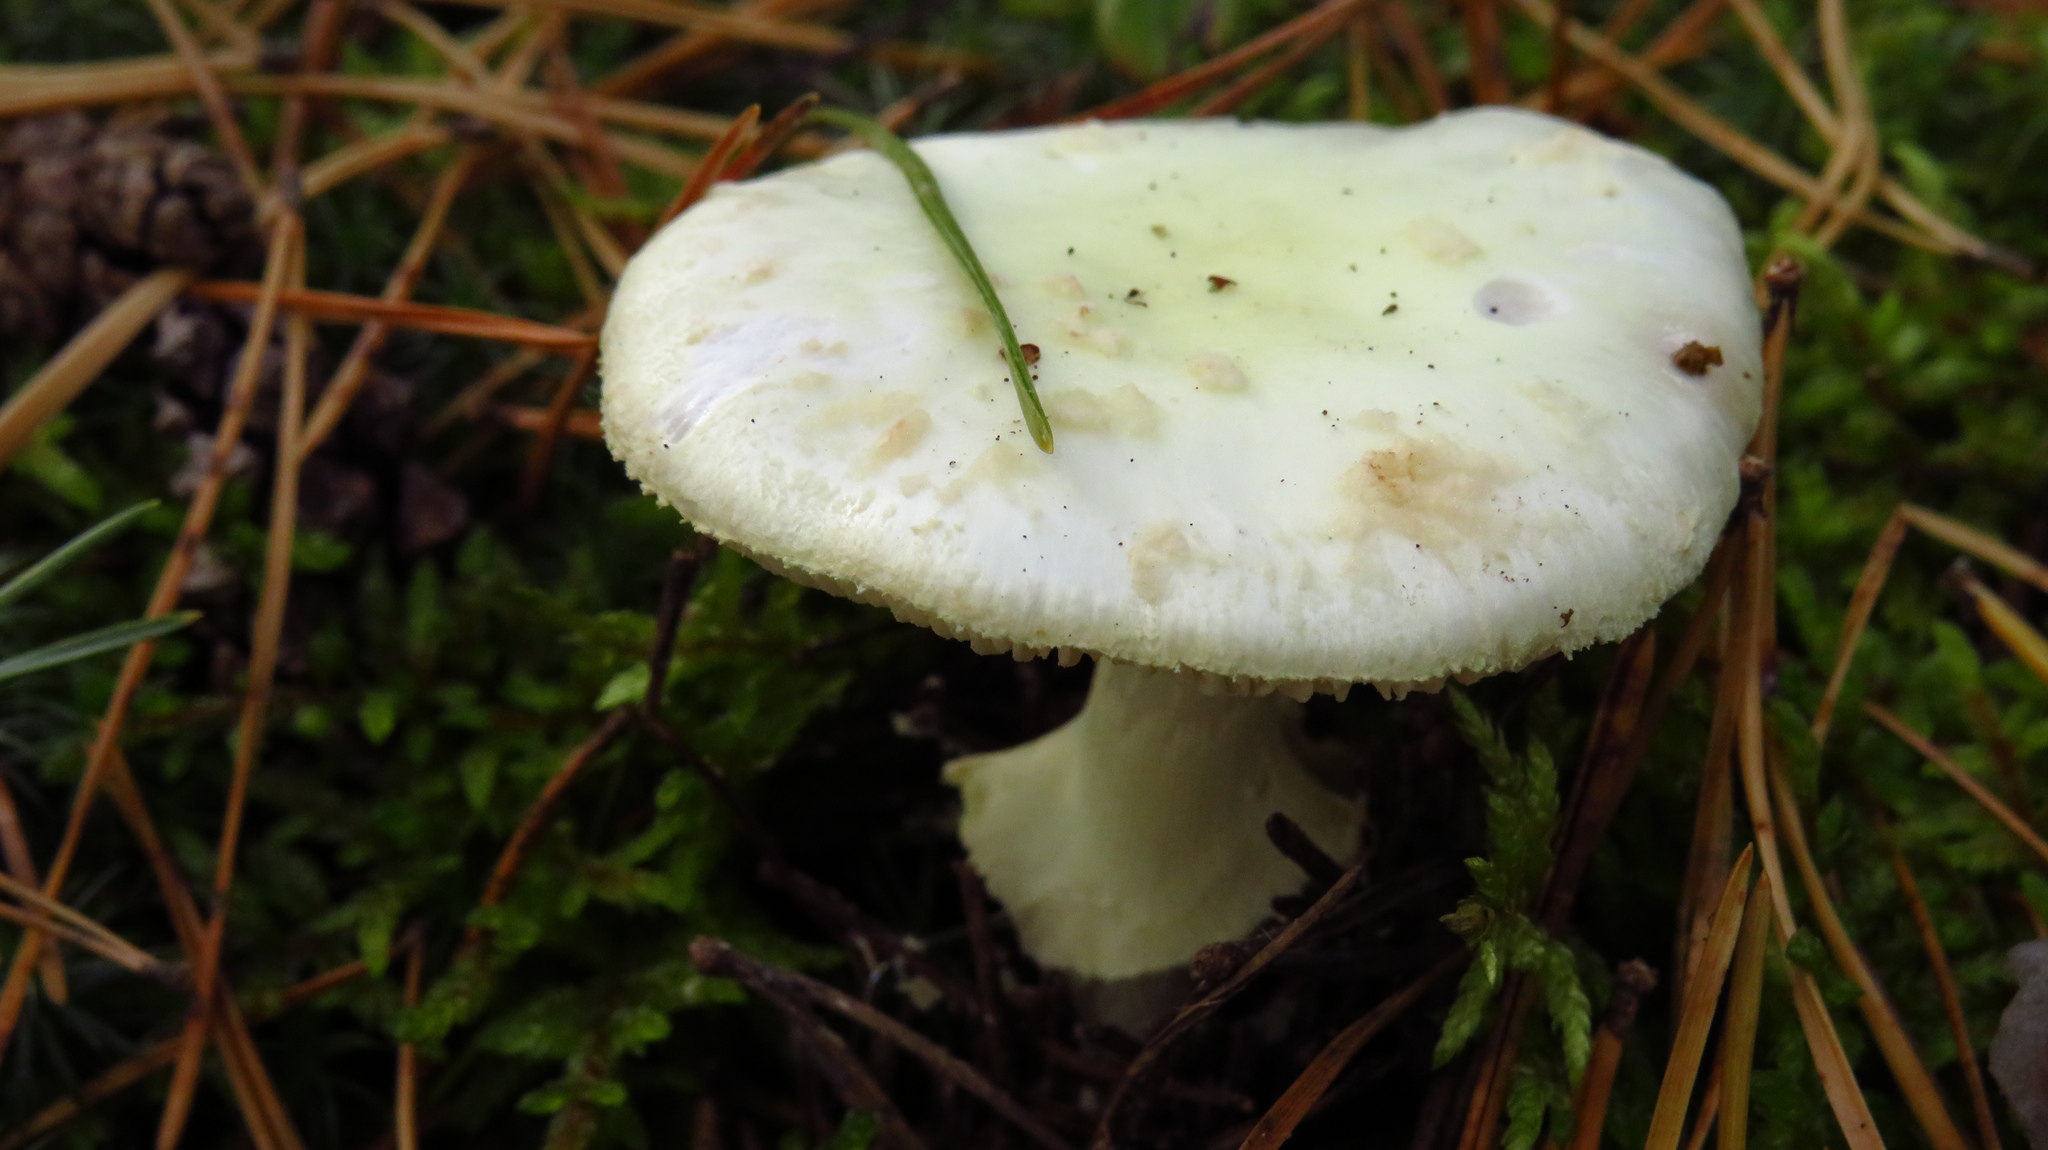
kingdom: Fungi
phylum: Basidiomycota
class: Agaricomycetes
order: Agaricales
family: Amanitaceae
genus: Amanita
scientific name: Amanita citrina
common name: False death-cap
